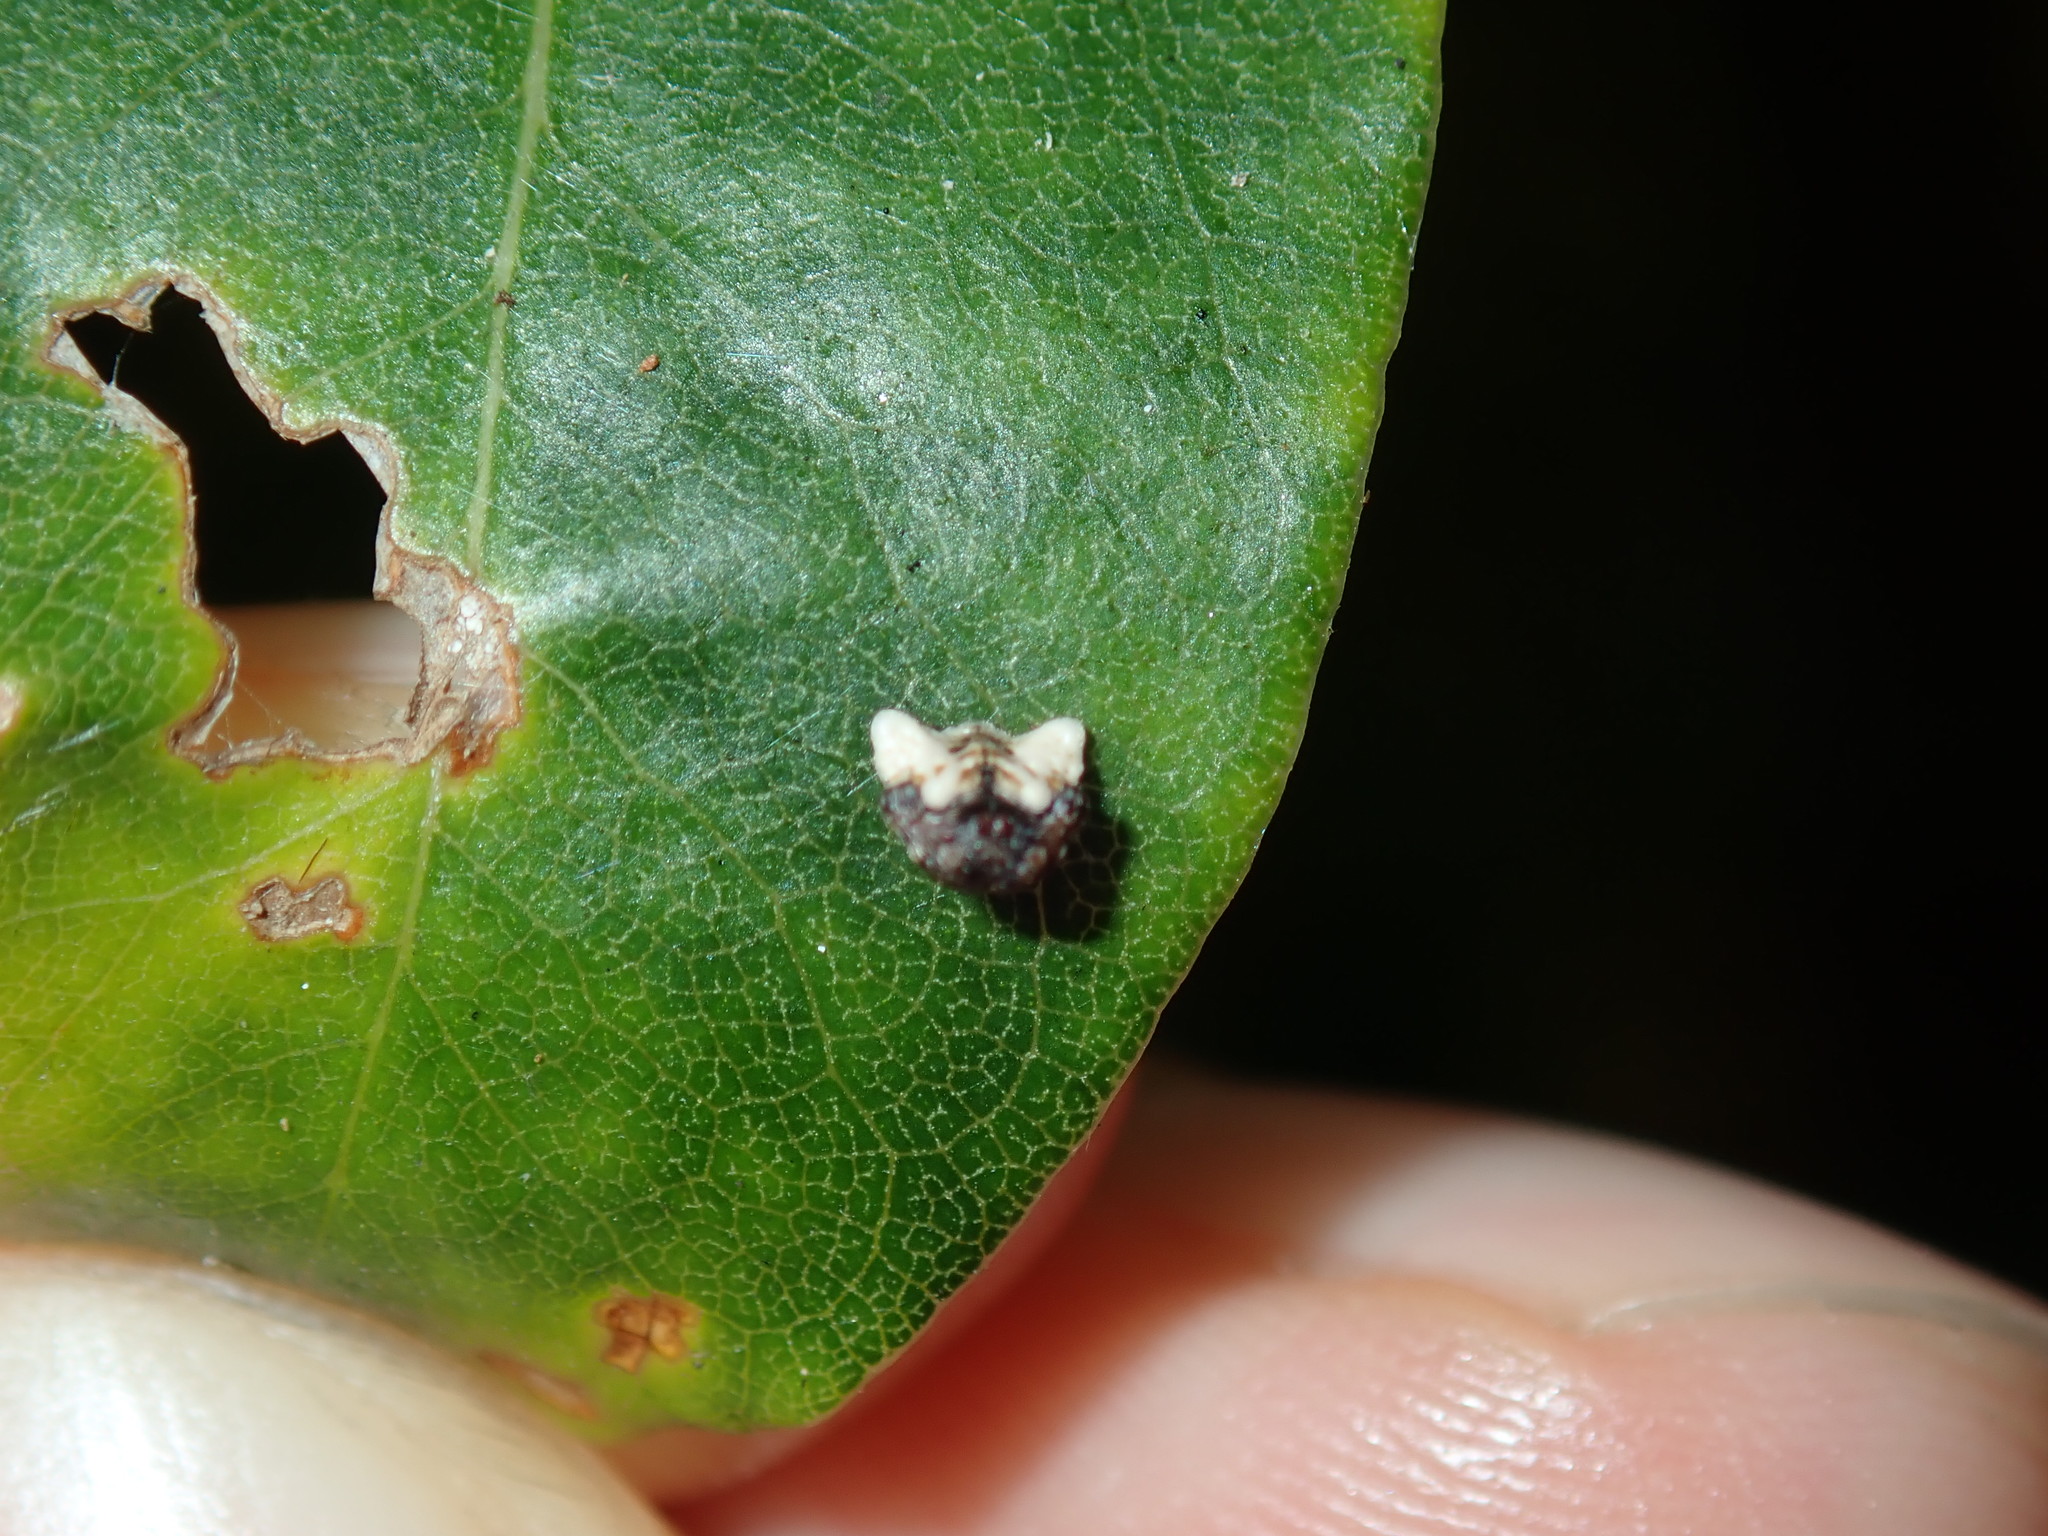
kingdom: Animalia
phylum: Arthropoda
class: Arachnida
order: Araneae
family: Arkyidae
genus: Arkys
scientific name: Arkys curtulus
